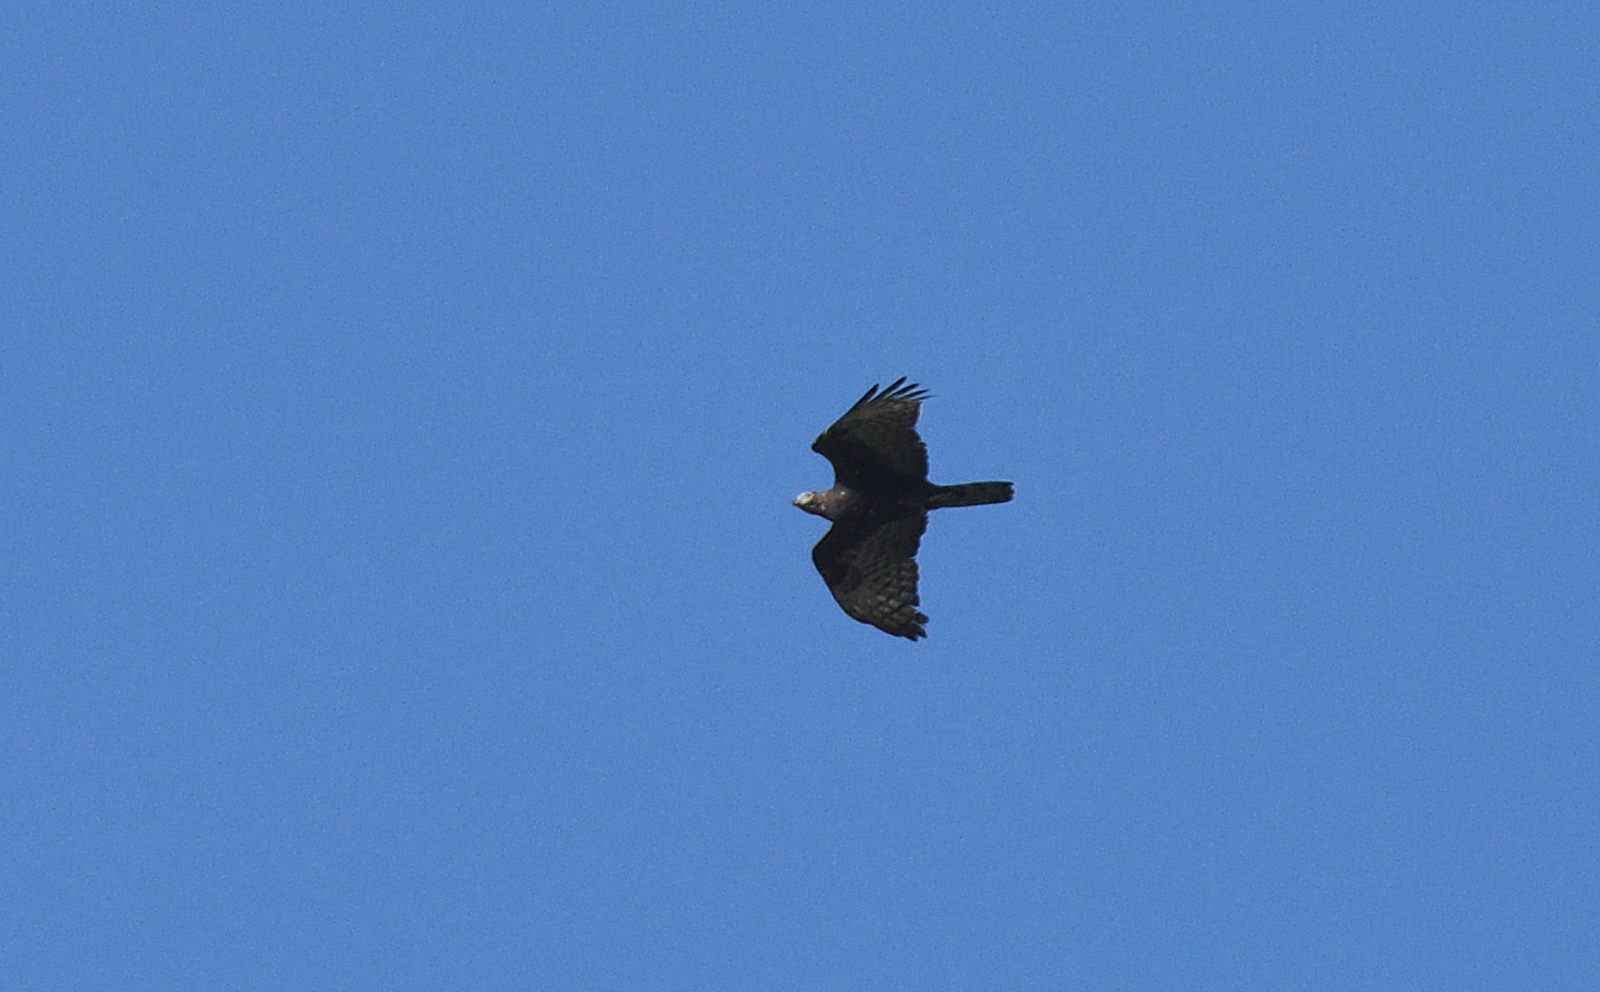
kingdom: Animalia
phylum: Chordata
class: Aves
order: Accipitriformes
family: Accipitridae
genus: Pernis
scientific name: Pernis ptilorhynchus
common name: Crested honey buzzard
